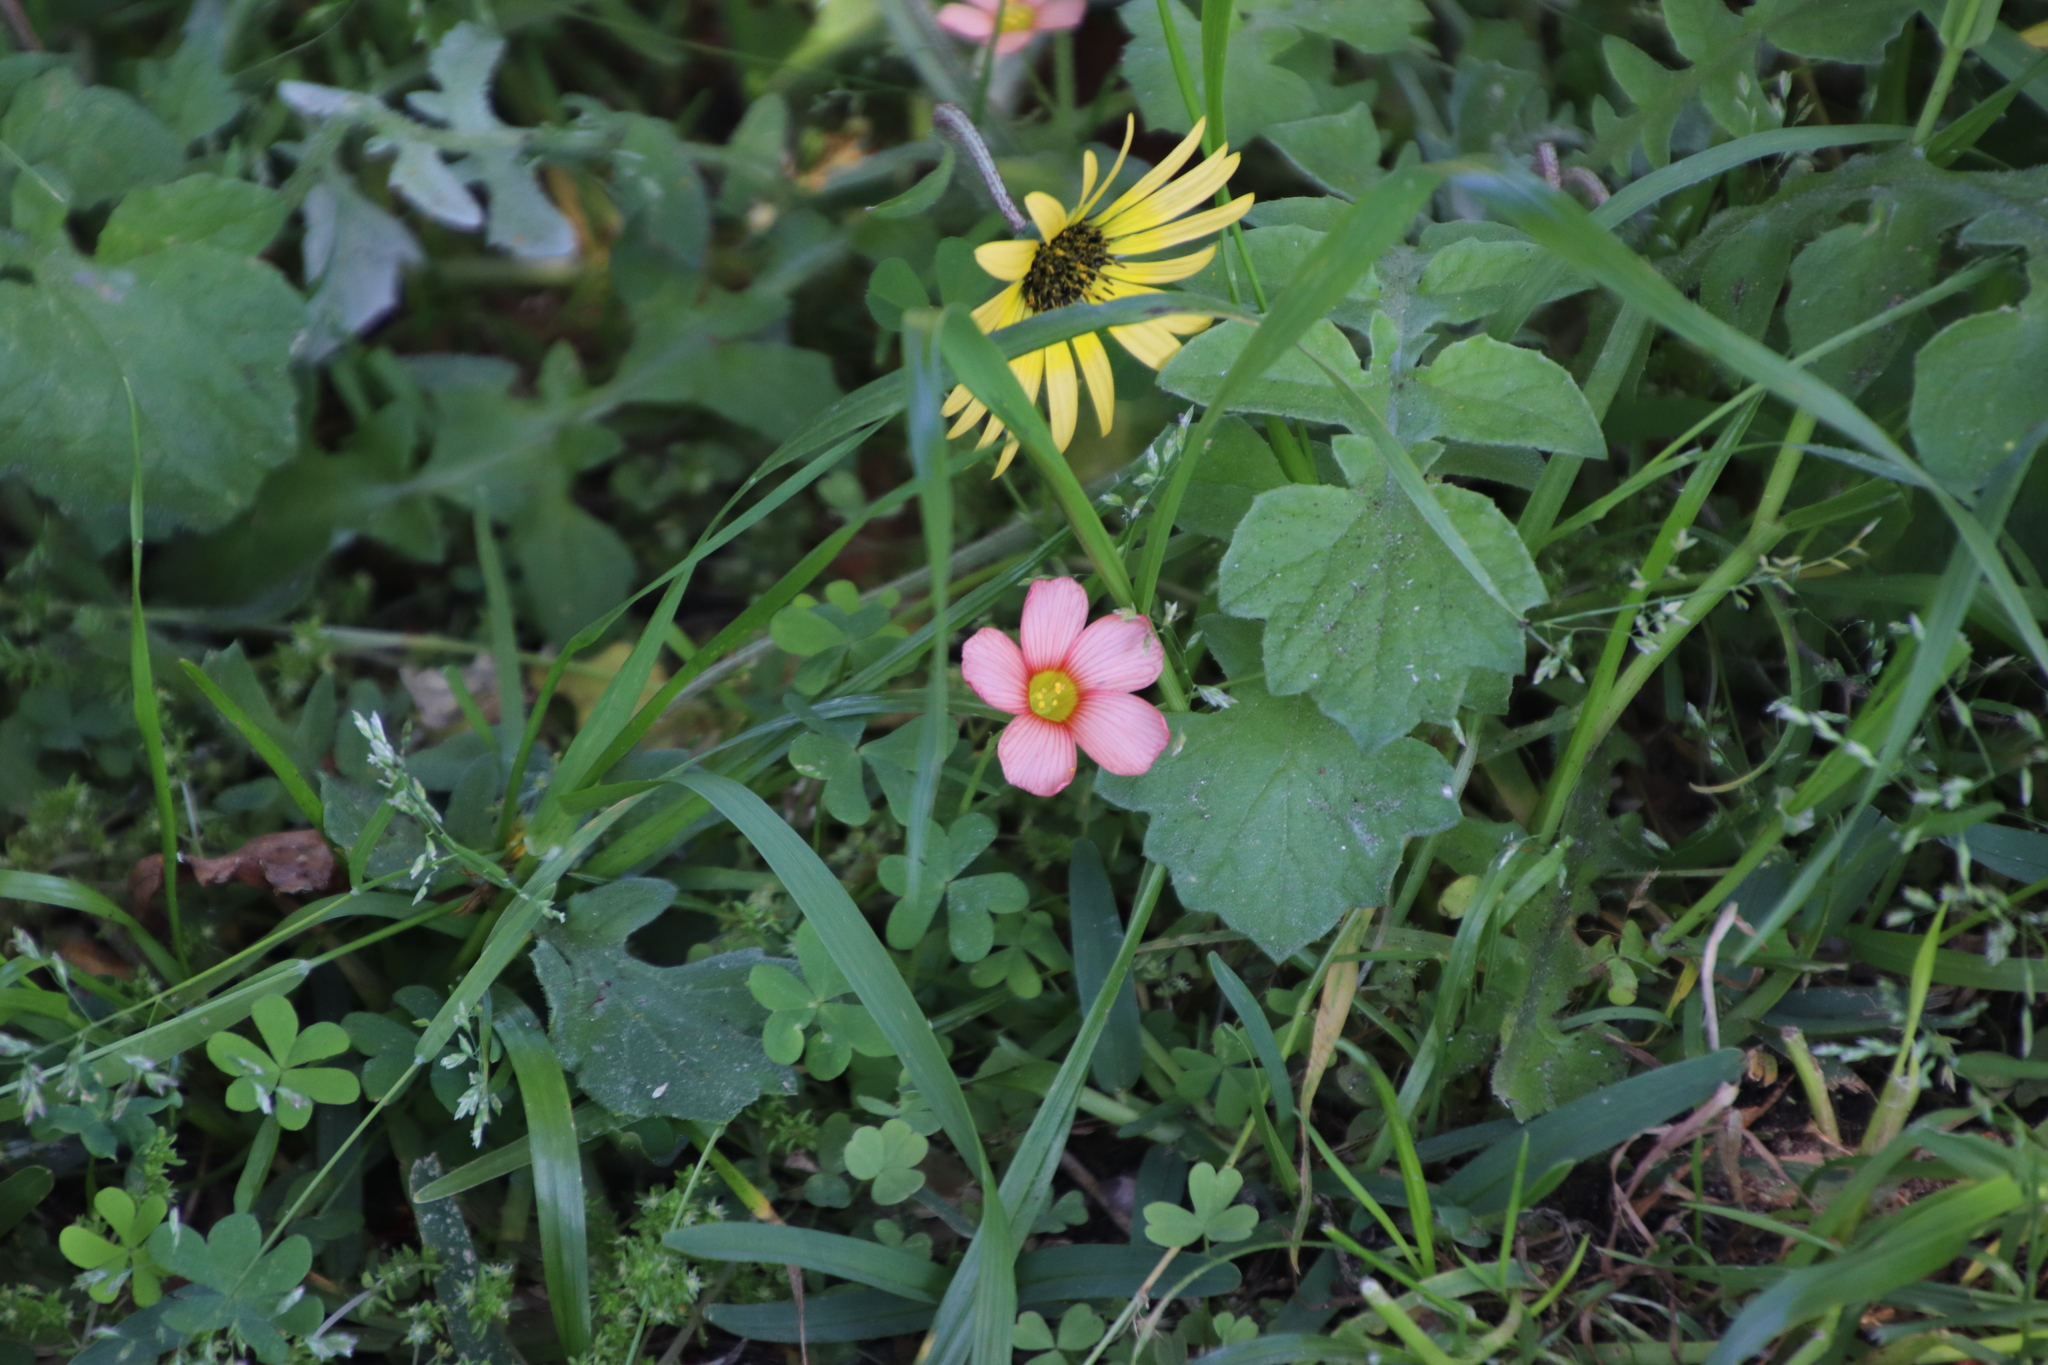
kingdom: Plantae
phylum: Tracheophyta
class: Magnoliopsida
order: Oxalidales
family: Oxalidaceae
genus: Oxalis
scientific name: Oxalis obtusa
